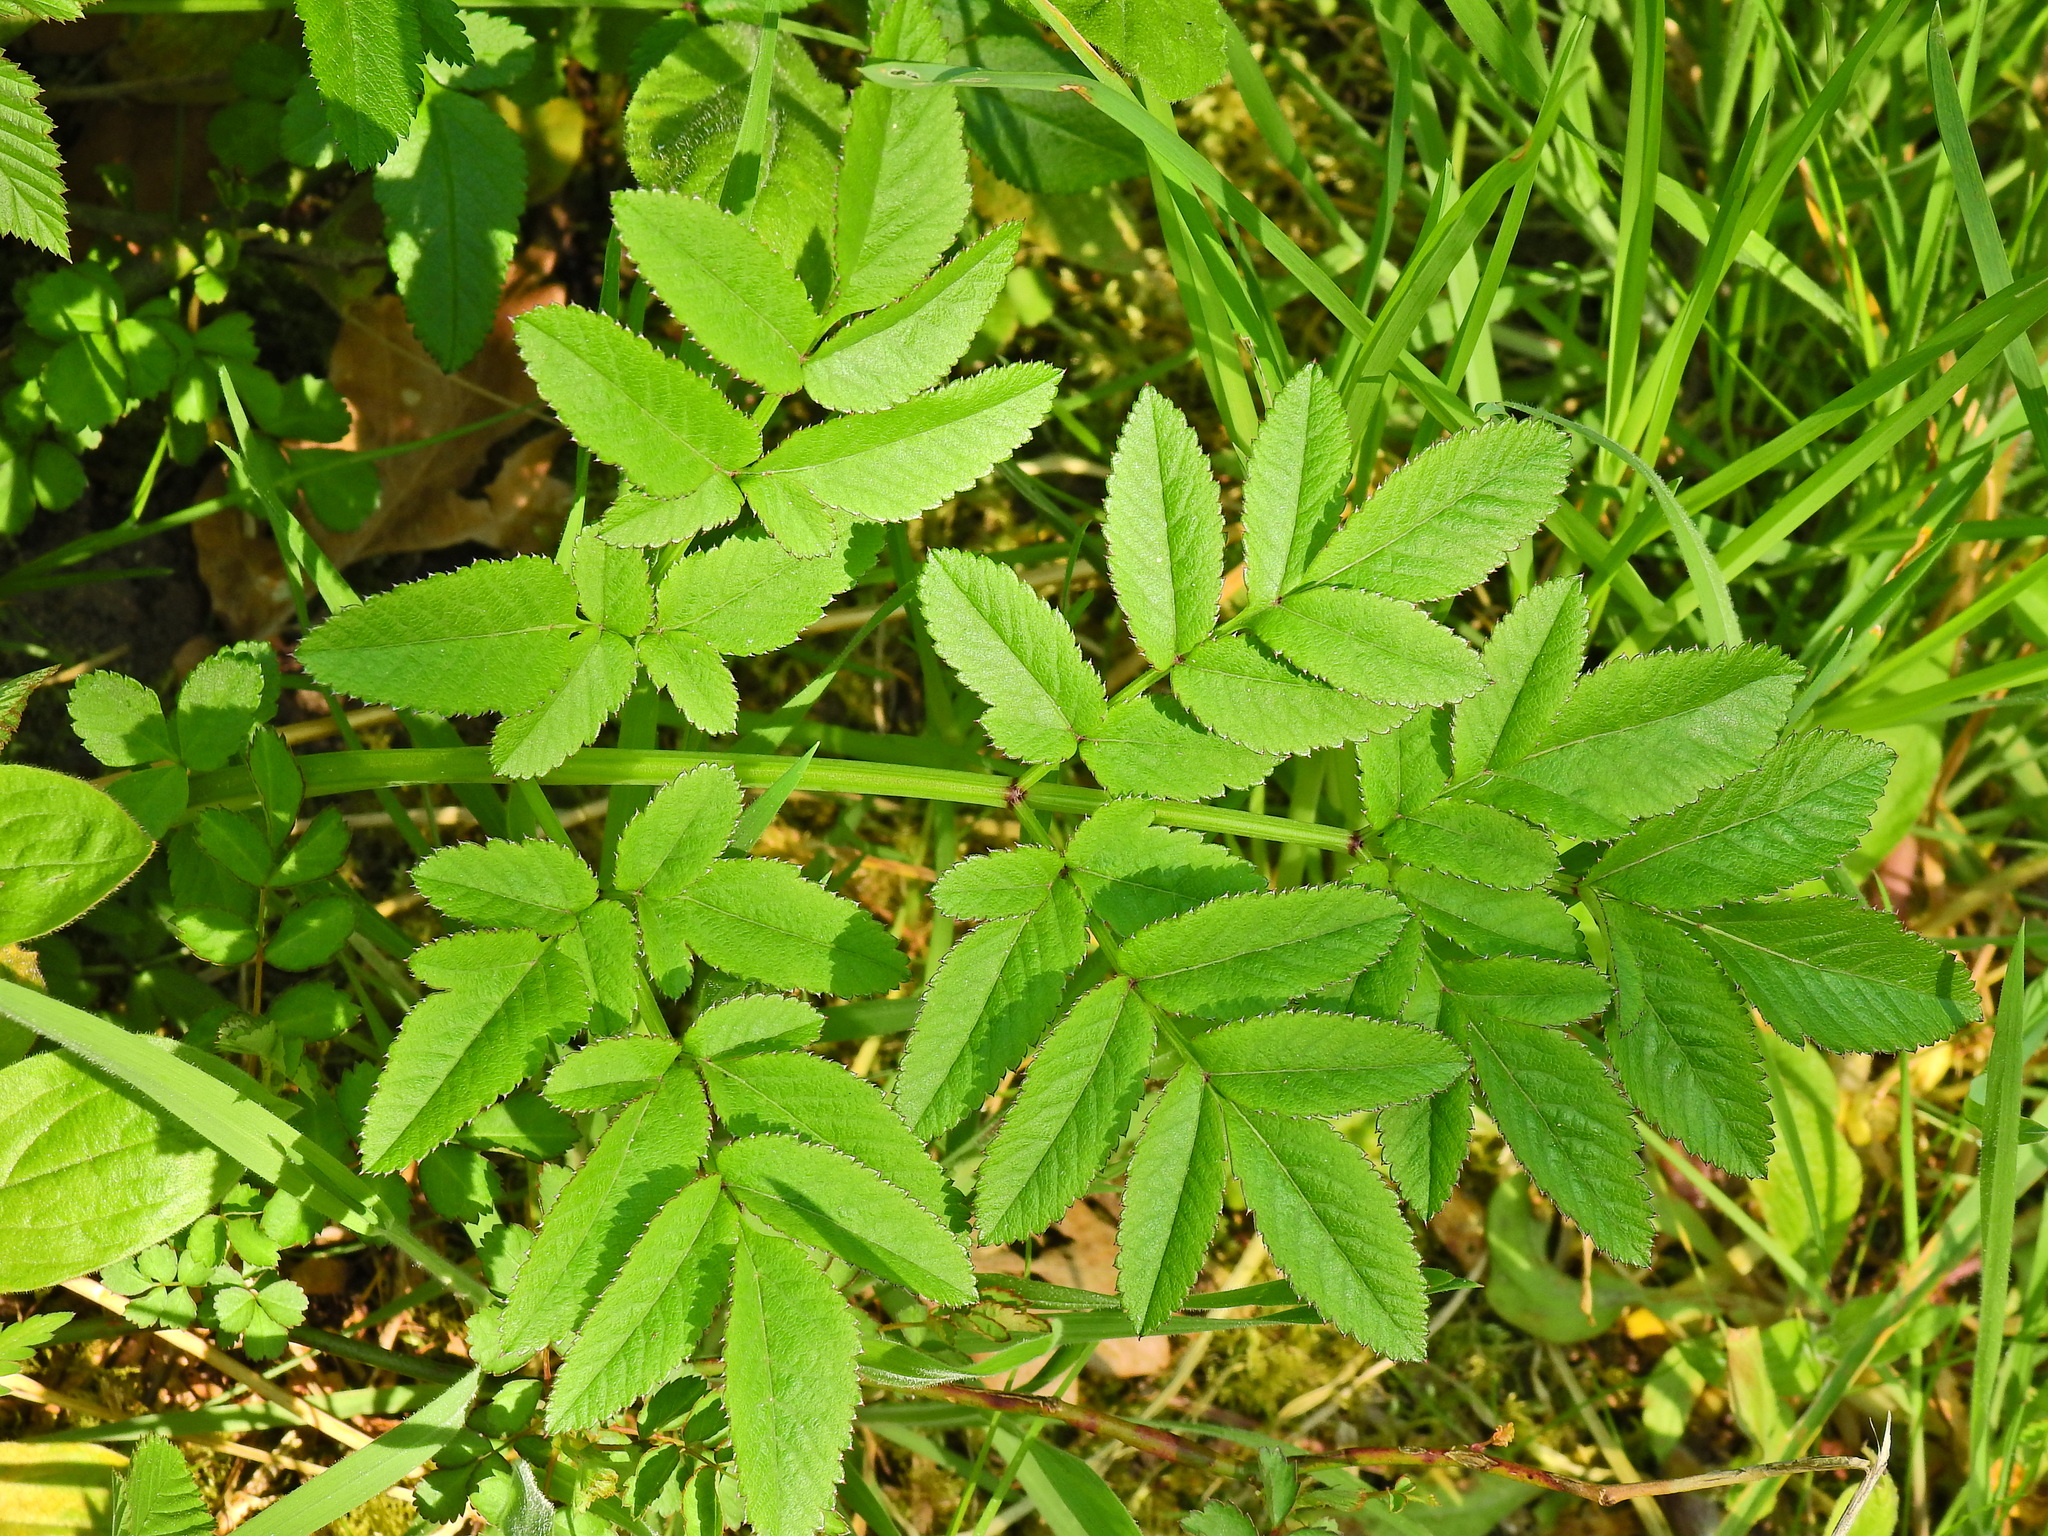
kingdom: Plantae
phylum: Tracheophyta
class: Magnoliopsida
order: Apiales
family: Apiaceae
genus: Angelica
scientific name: Angelica sylvestris
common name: Wild angelica
